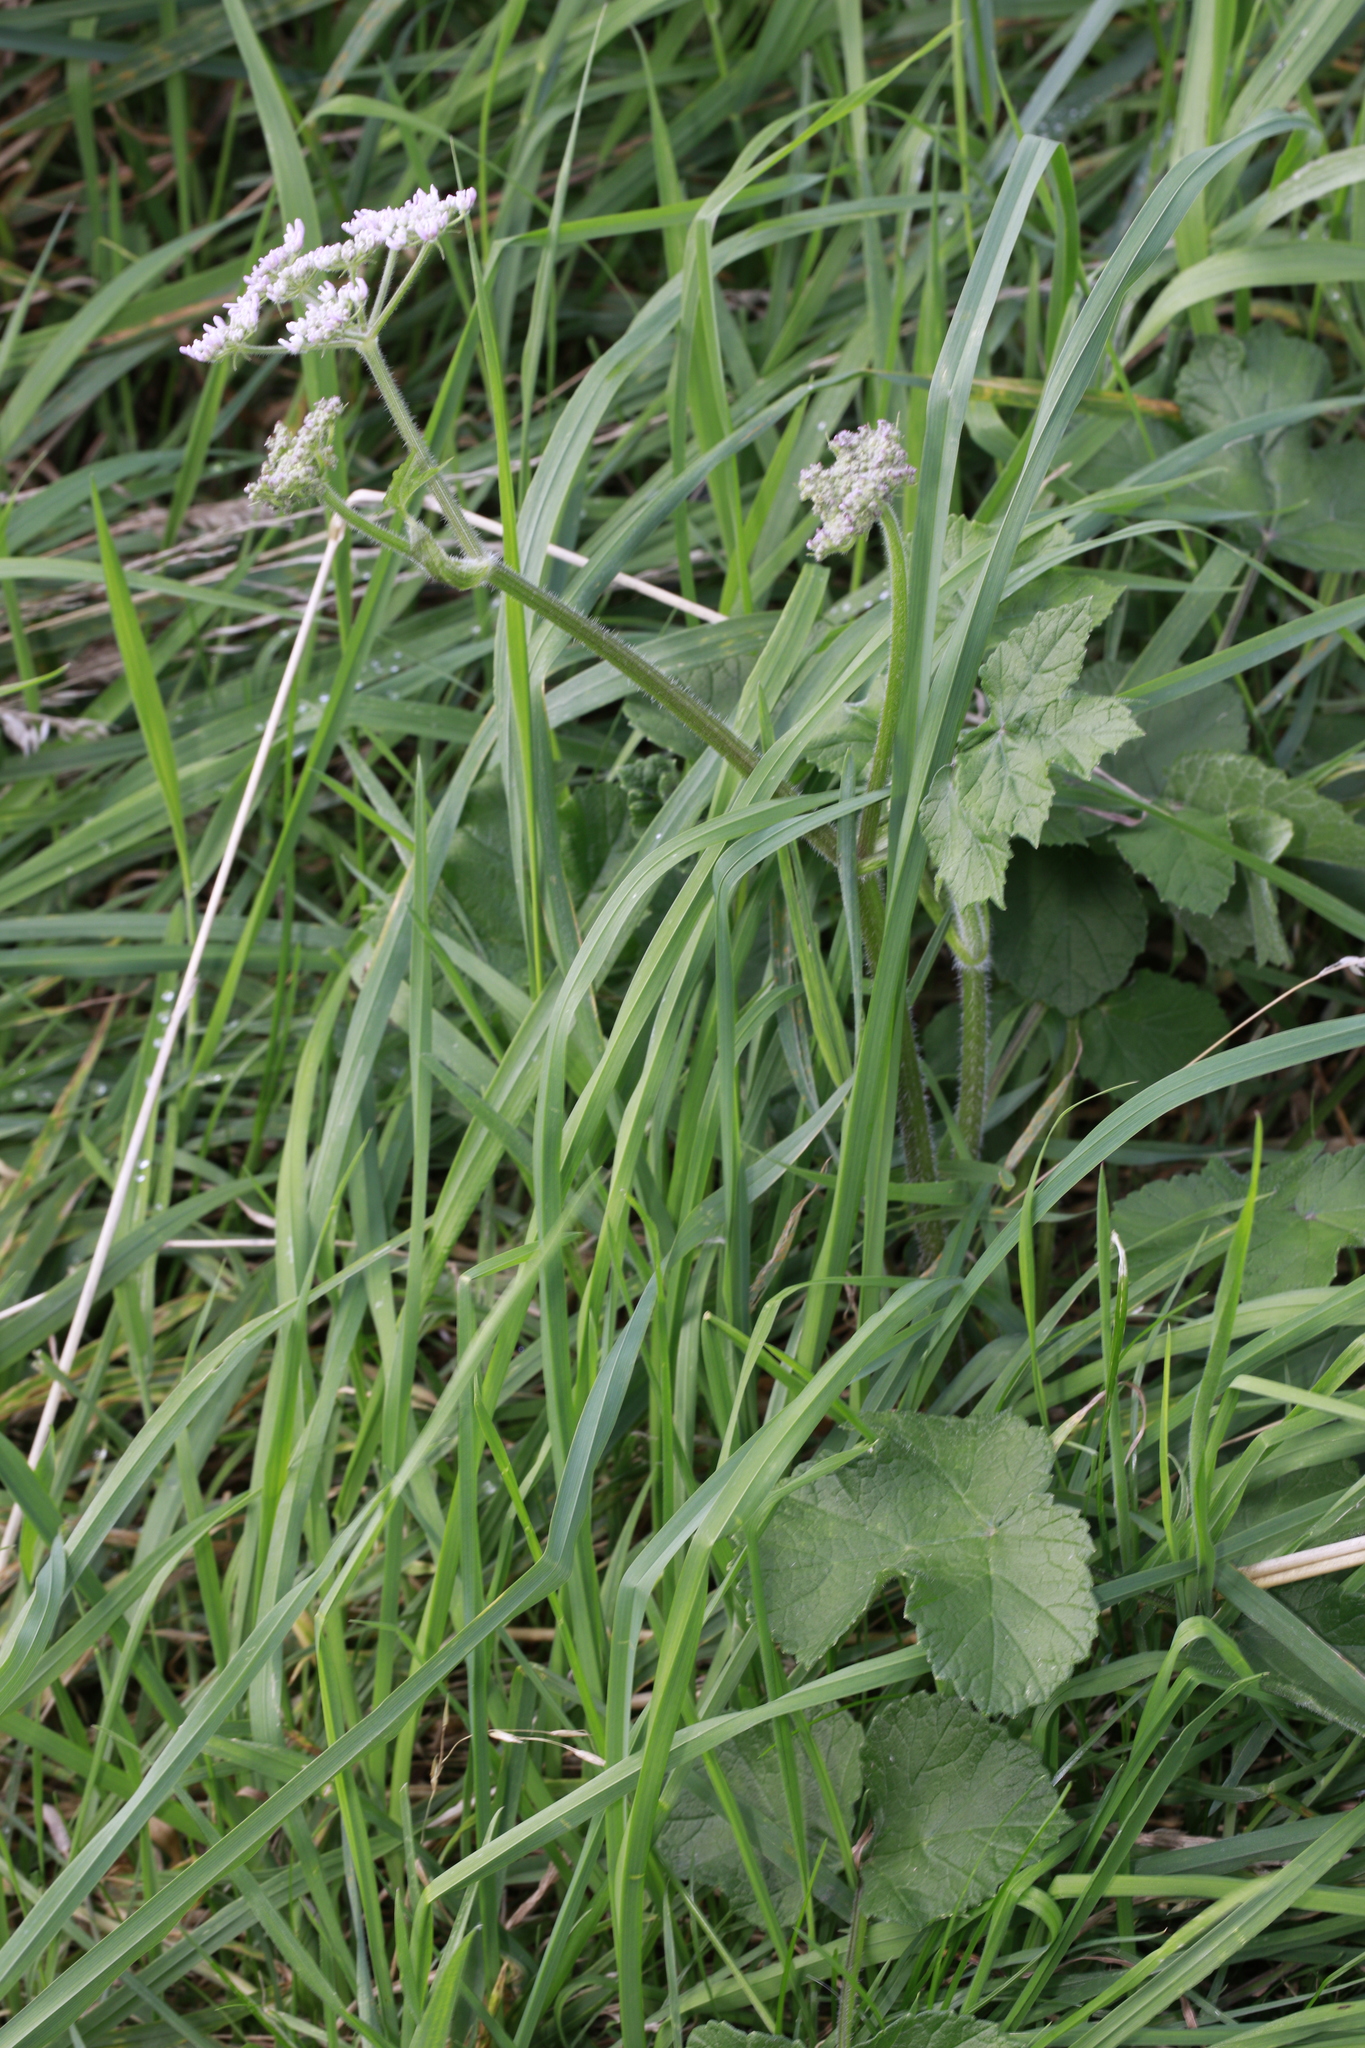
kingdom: Plantae
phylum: Tracheophyta
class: Magnoliopsida
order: Apiales
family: Apiaceae
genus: Heracleum
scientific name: Heracleum sphondylium
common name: Hogweed
